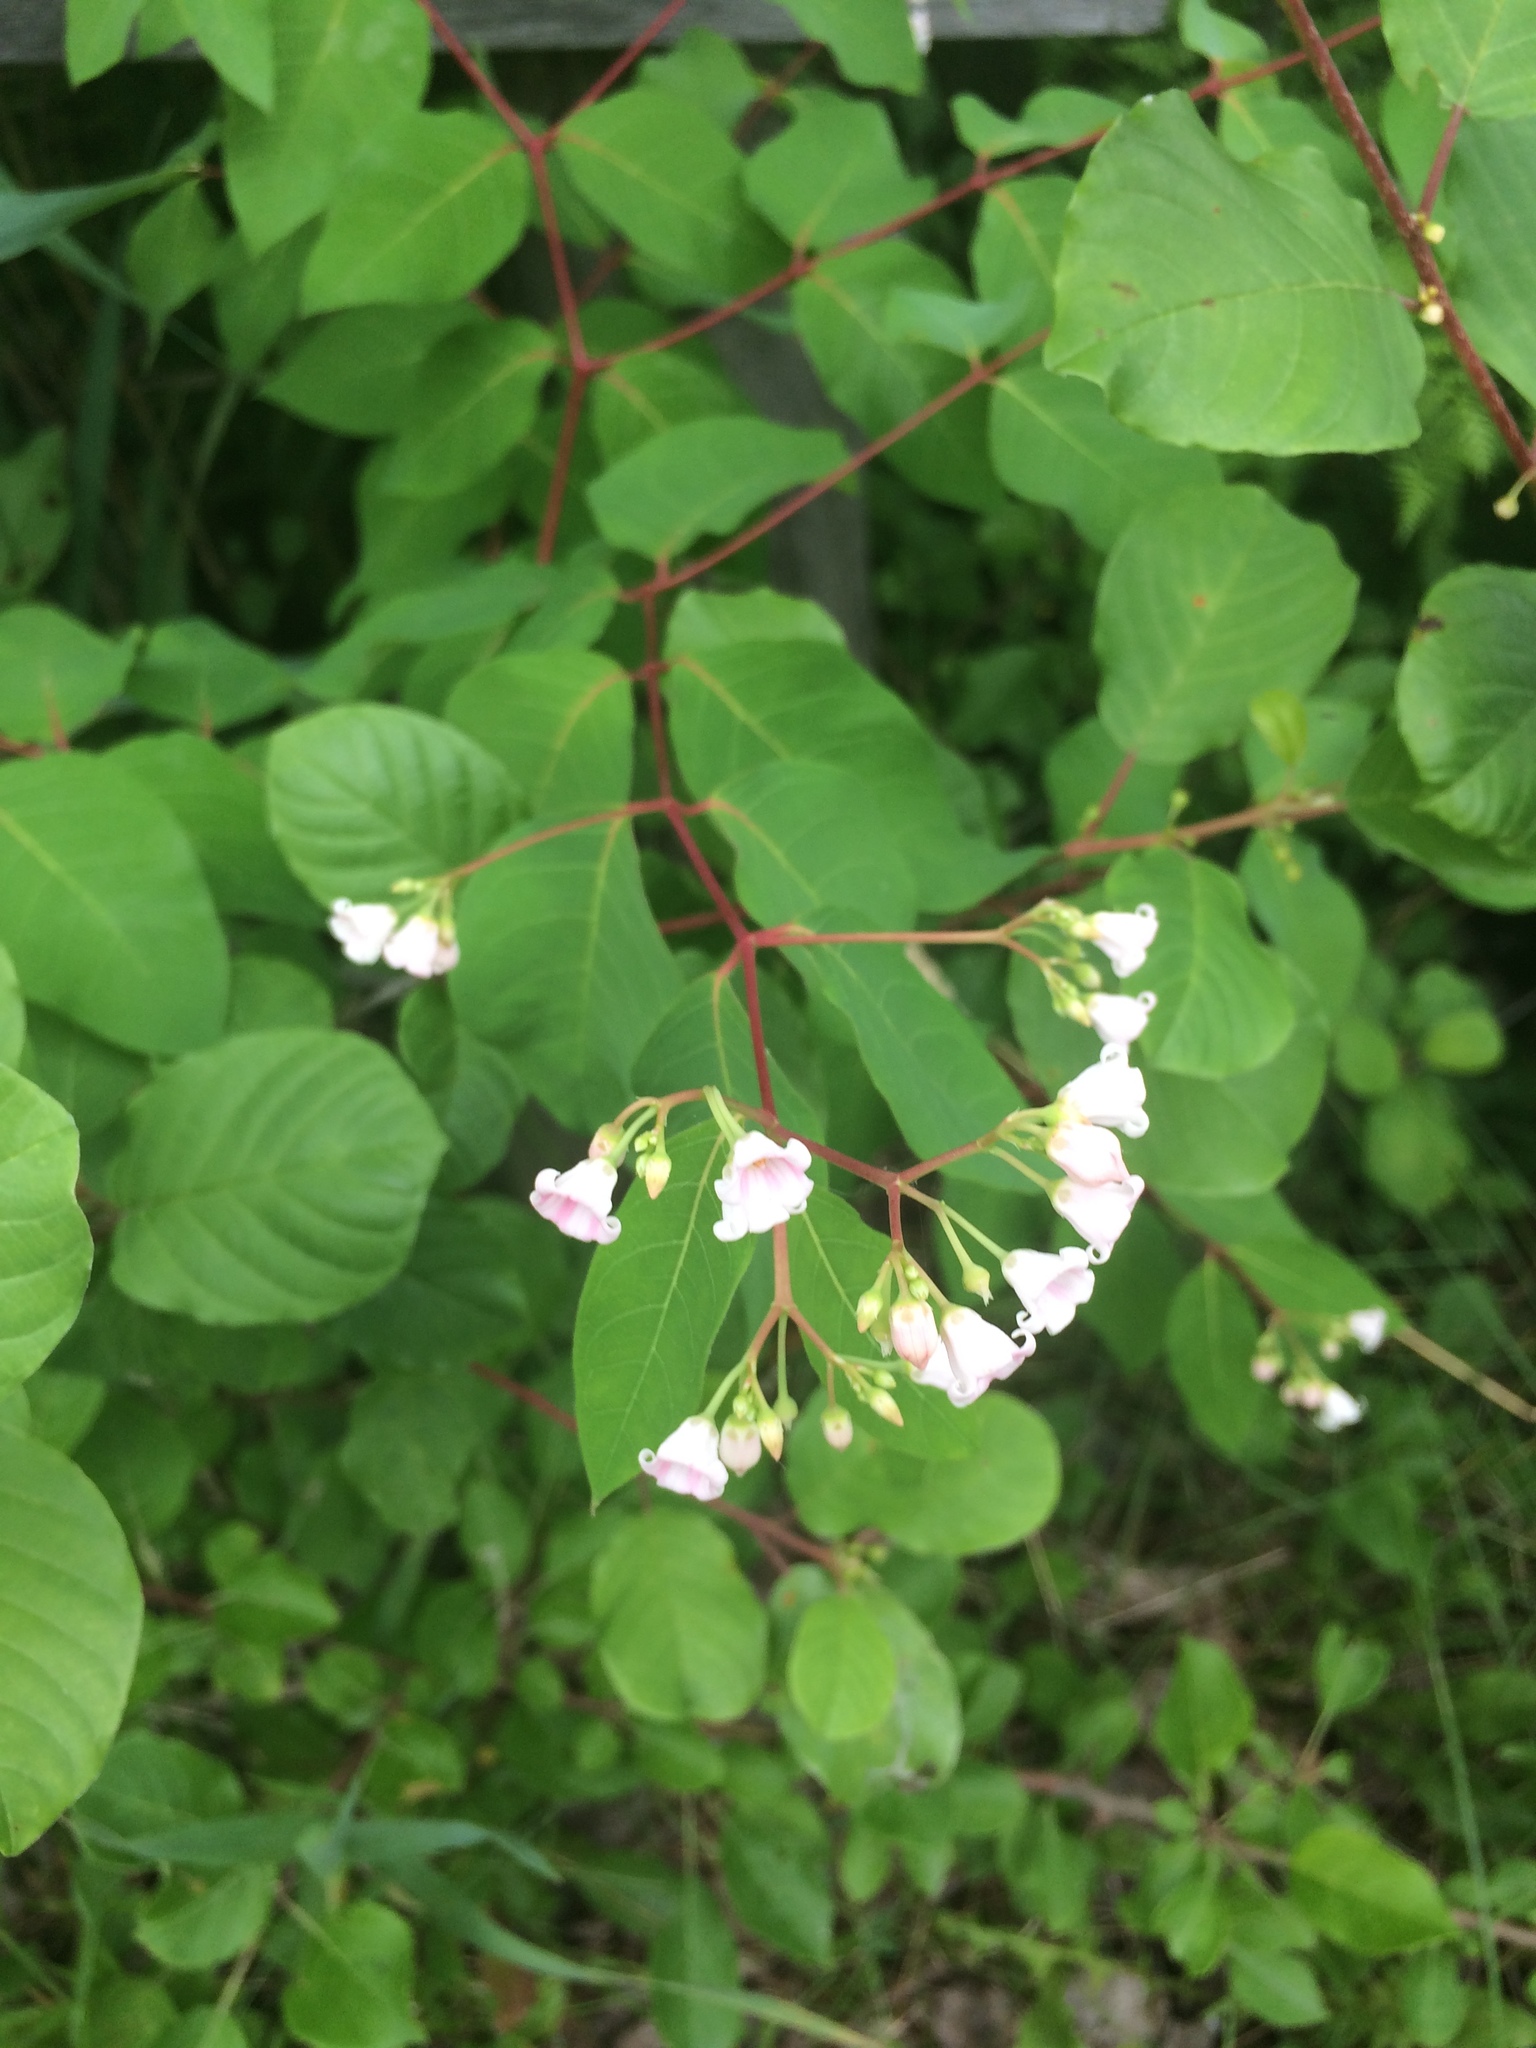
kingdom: Plantae
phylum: Tracheophyta
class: Magnoliopsida
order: Gentianales
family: Apocynaceae
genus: Apocynum
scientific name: Apocynum androsaemifolium
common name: Spreading dogbane
